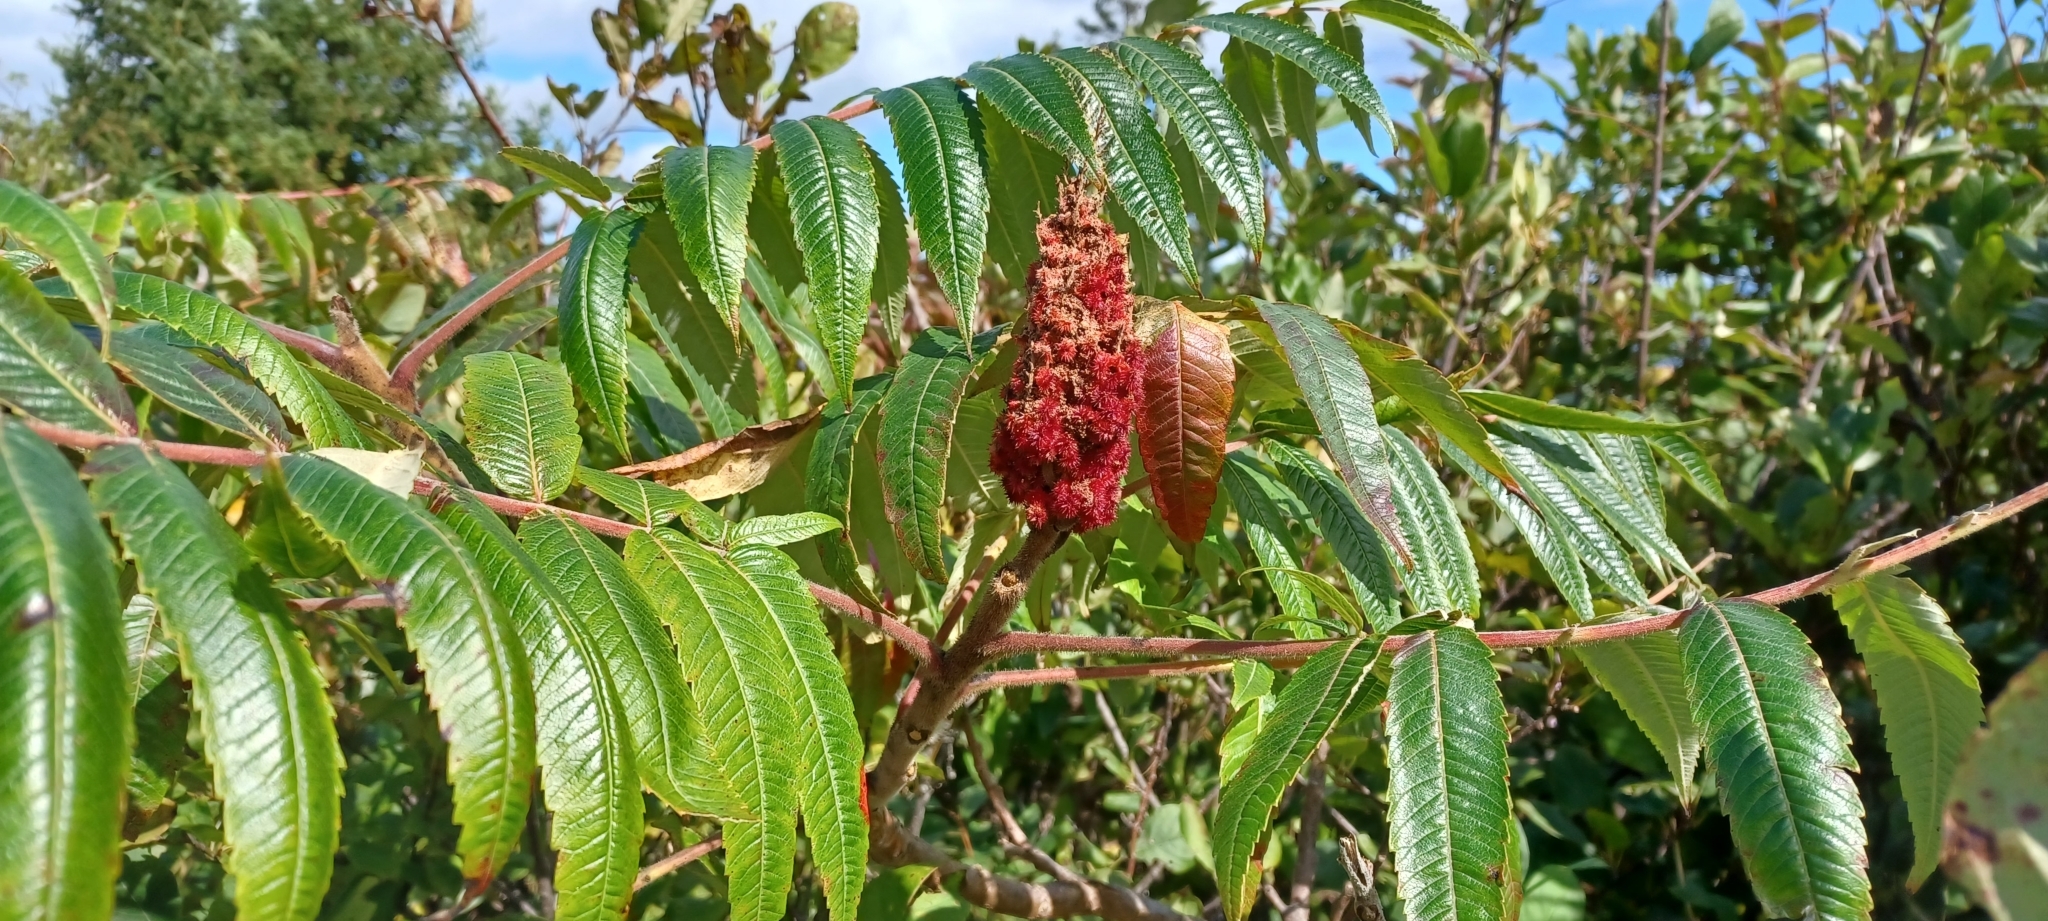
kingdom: Plantae
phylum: Tracheophyta
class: Magnoliopsida
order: Sapindales
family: Anacardiaceae
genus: Rhus
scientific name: Rhus typhina
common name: Staghorn sumac
